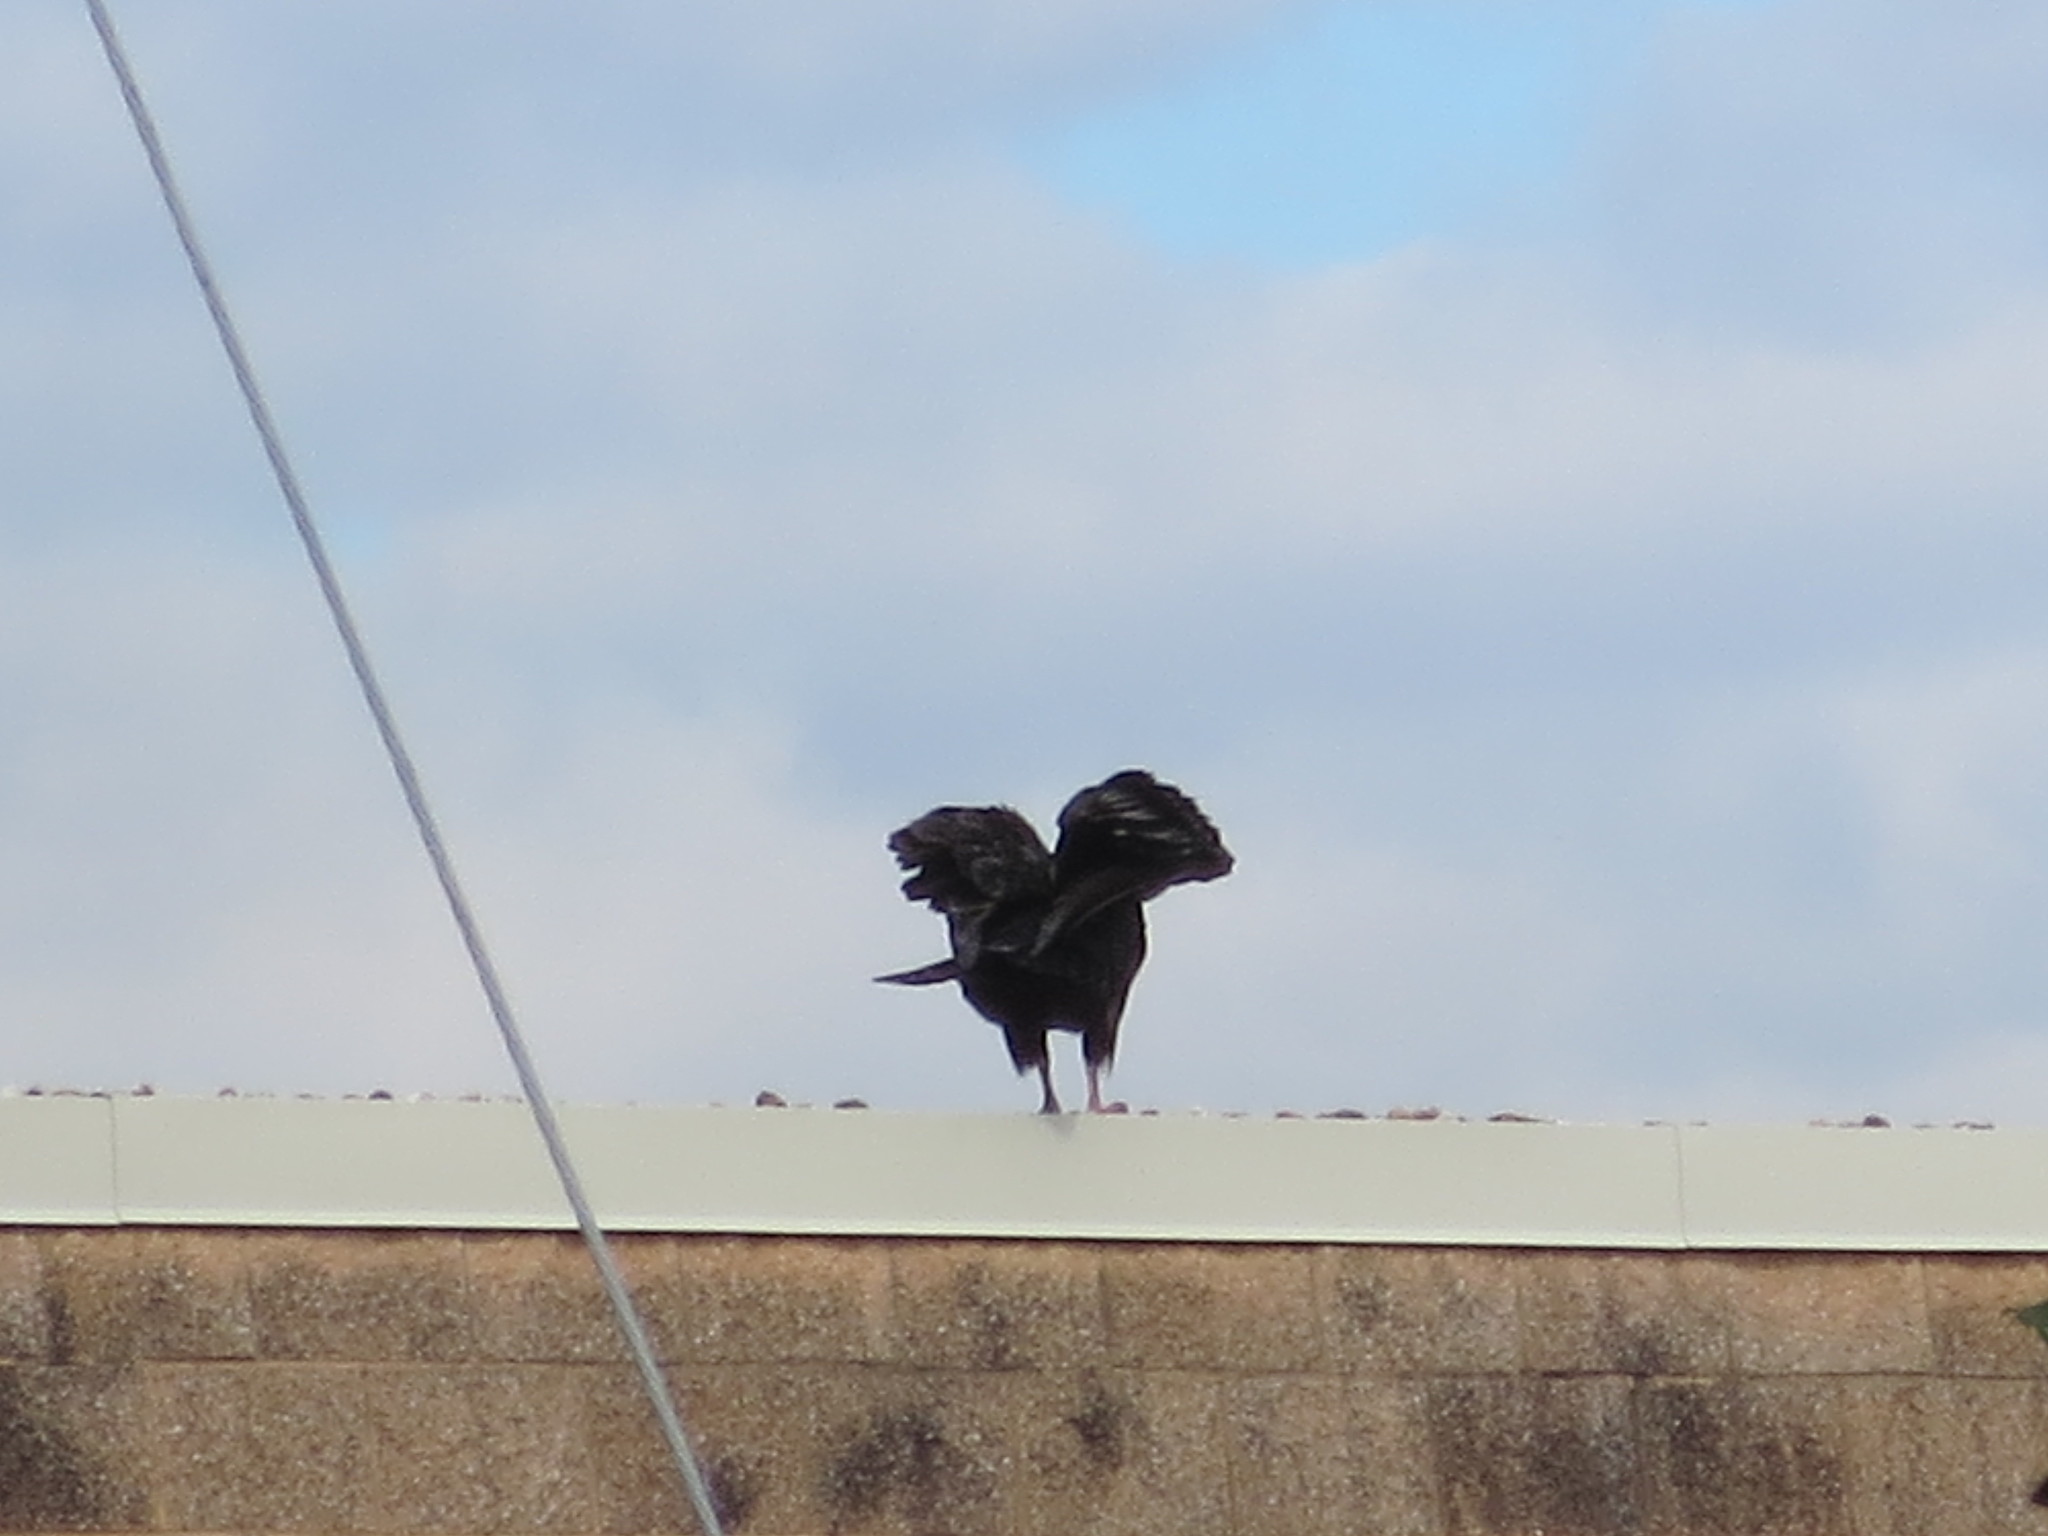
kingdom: Animalia
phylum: Chordata
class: Aves
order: Accipitriformes
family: Cathartidae
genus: Cathartes
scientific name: Cathartes aura
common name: Turkey vulture
